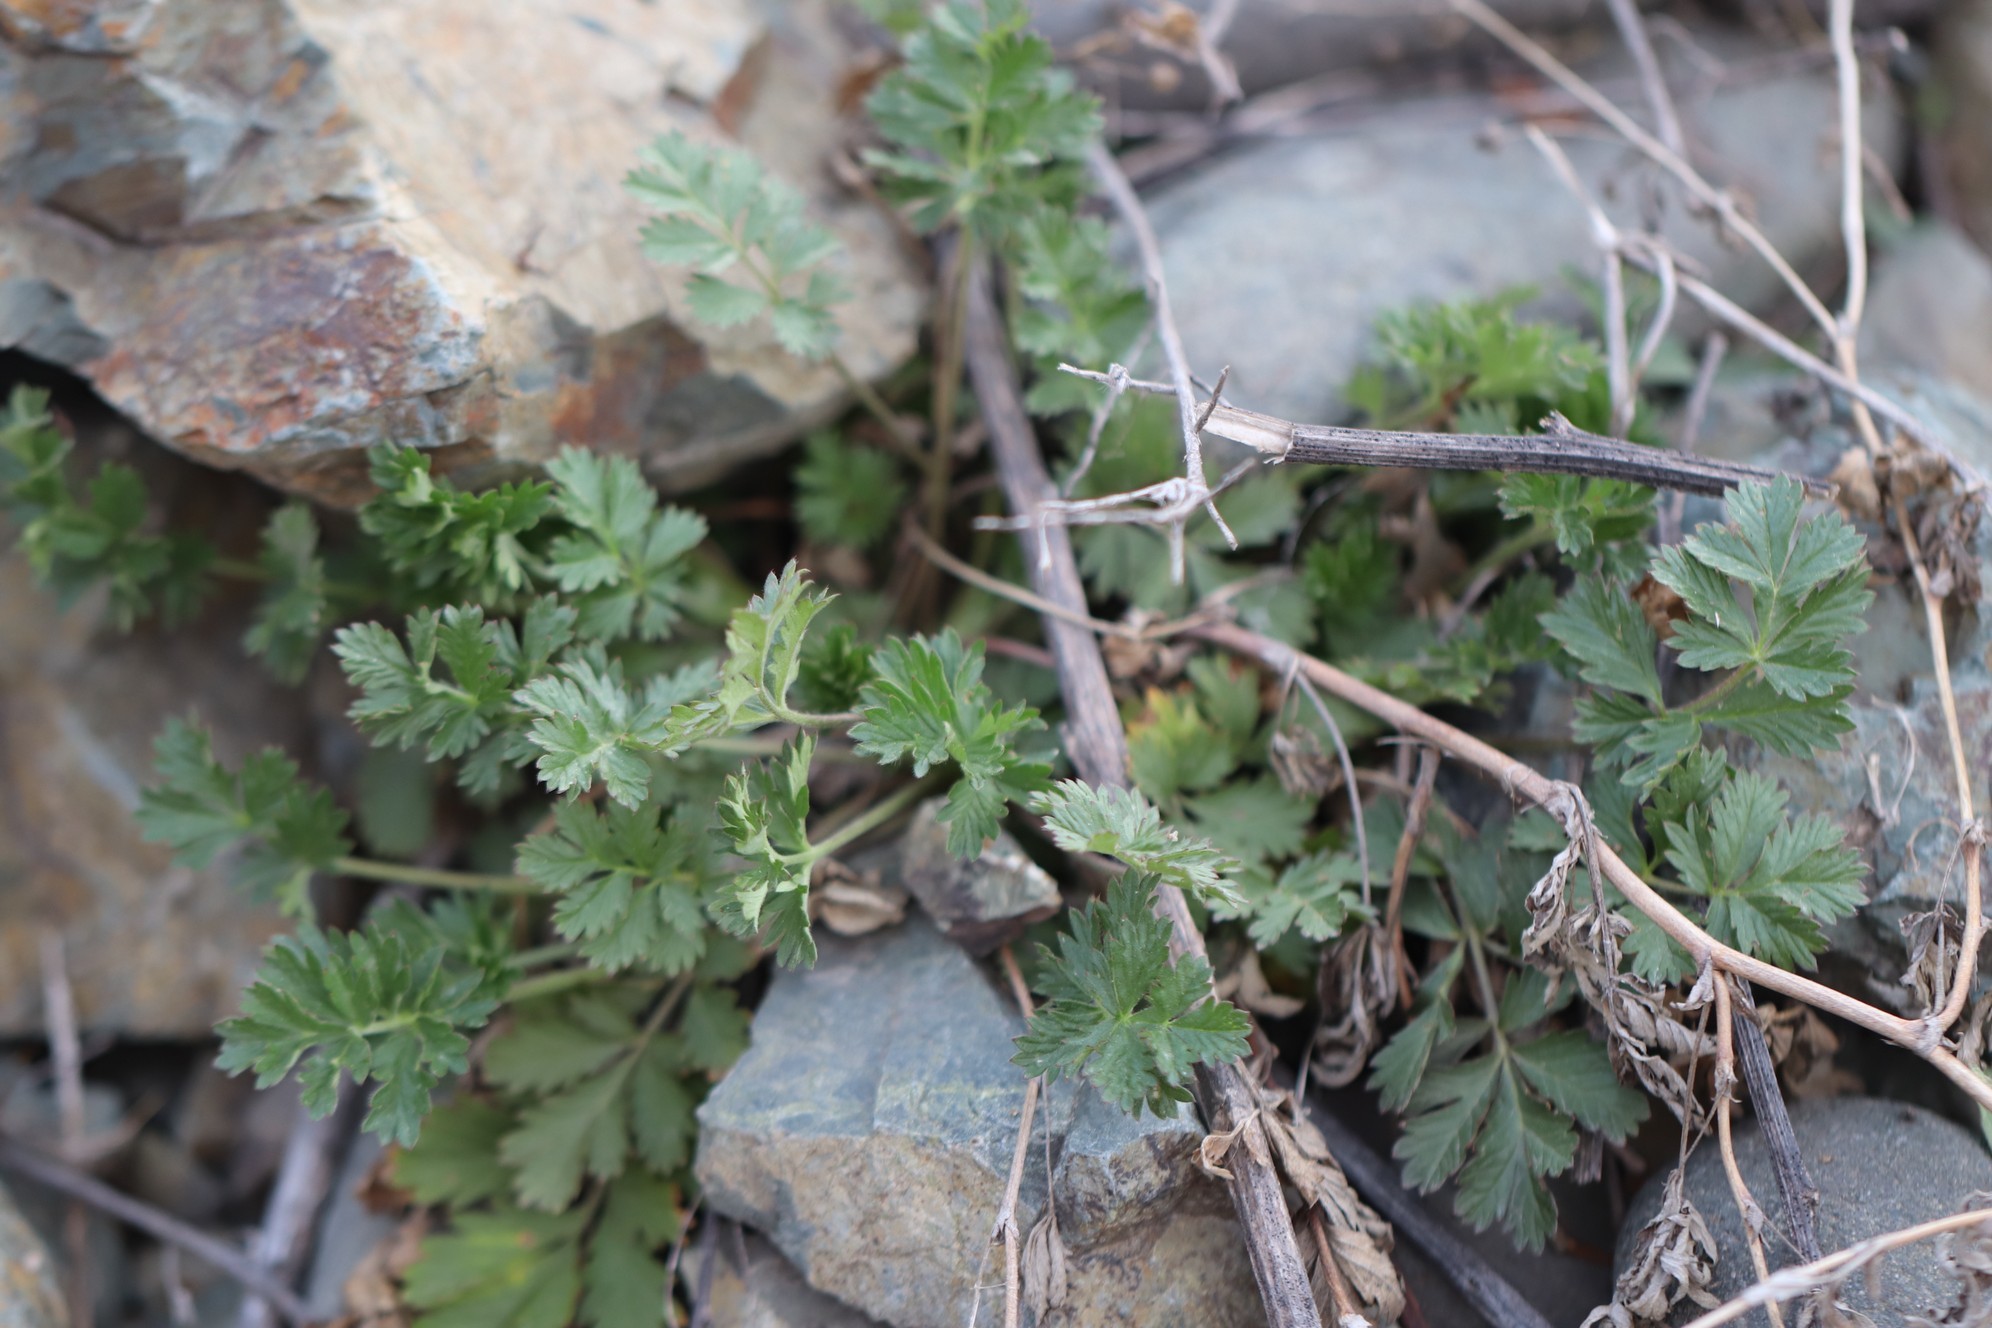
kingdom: Plantae
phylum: Tracheophyta
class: Magnoliopsida
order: Rosales
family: Rosaceae
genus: Potentilla
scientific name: Potentilla supina
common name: Prostrate cinquefoil
